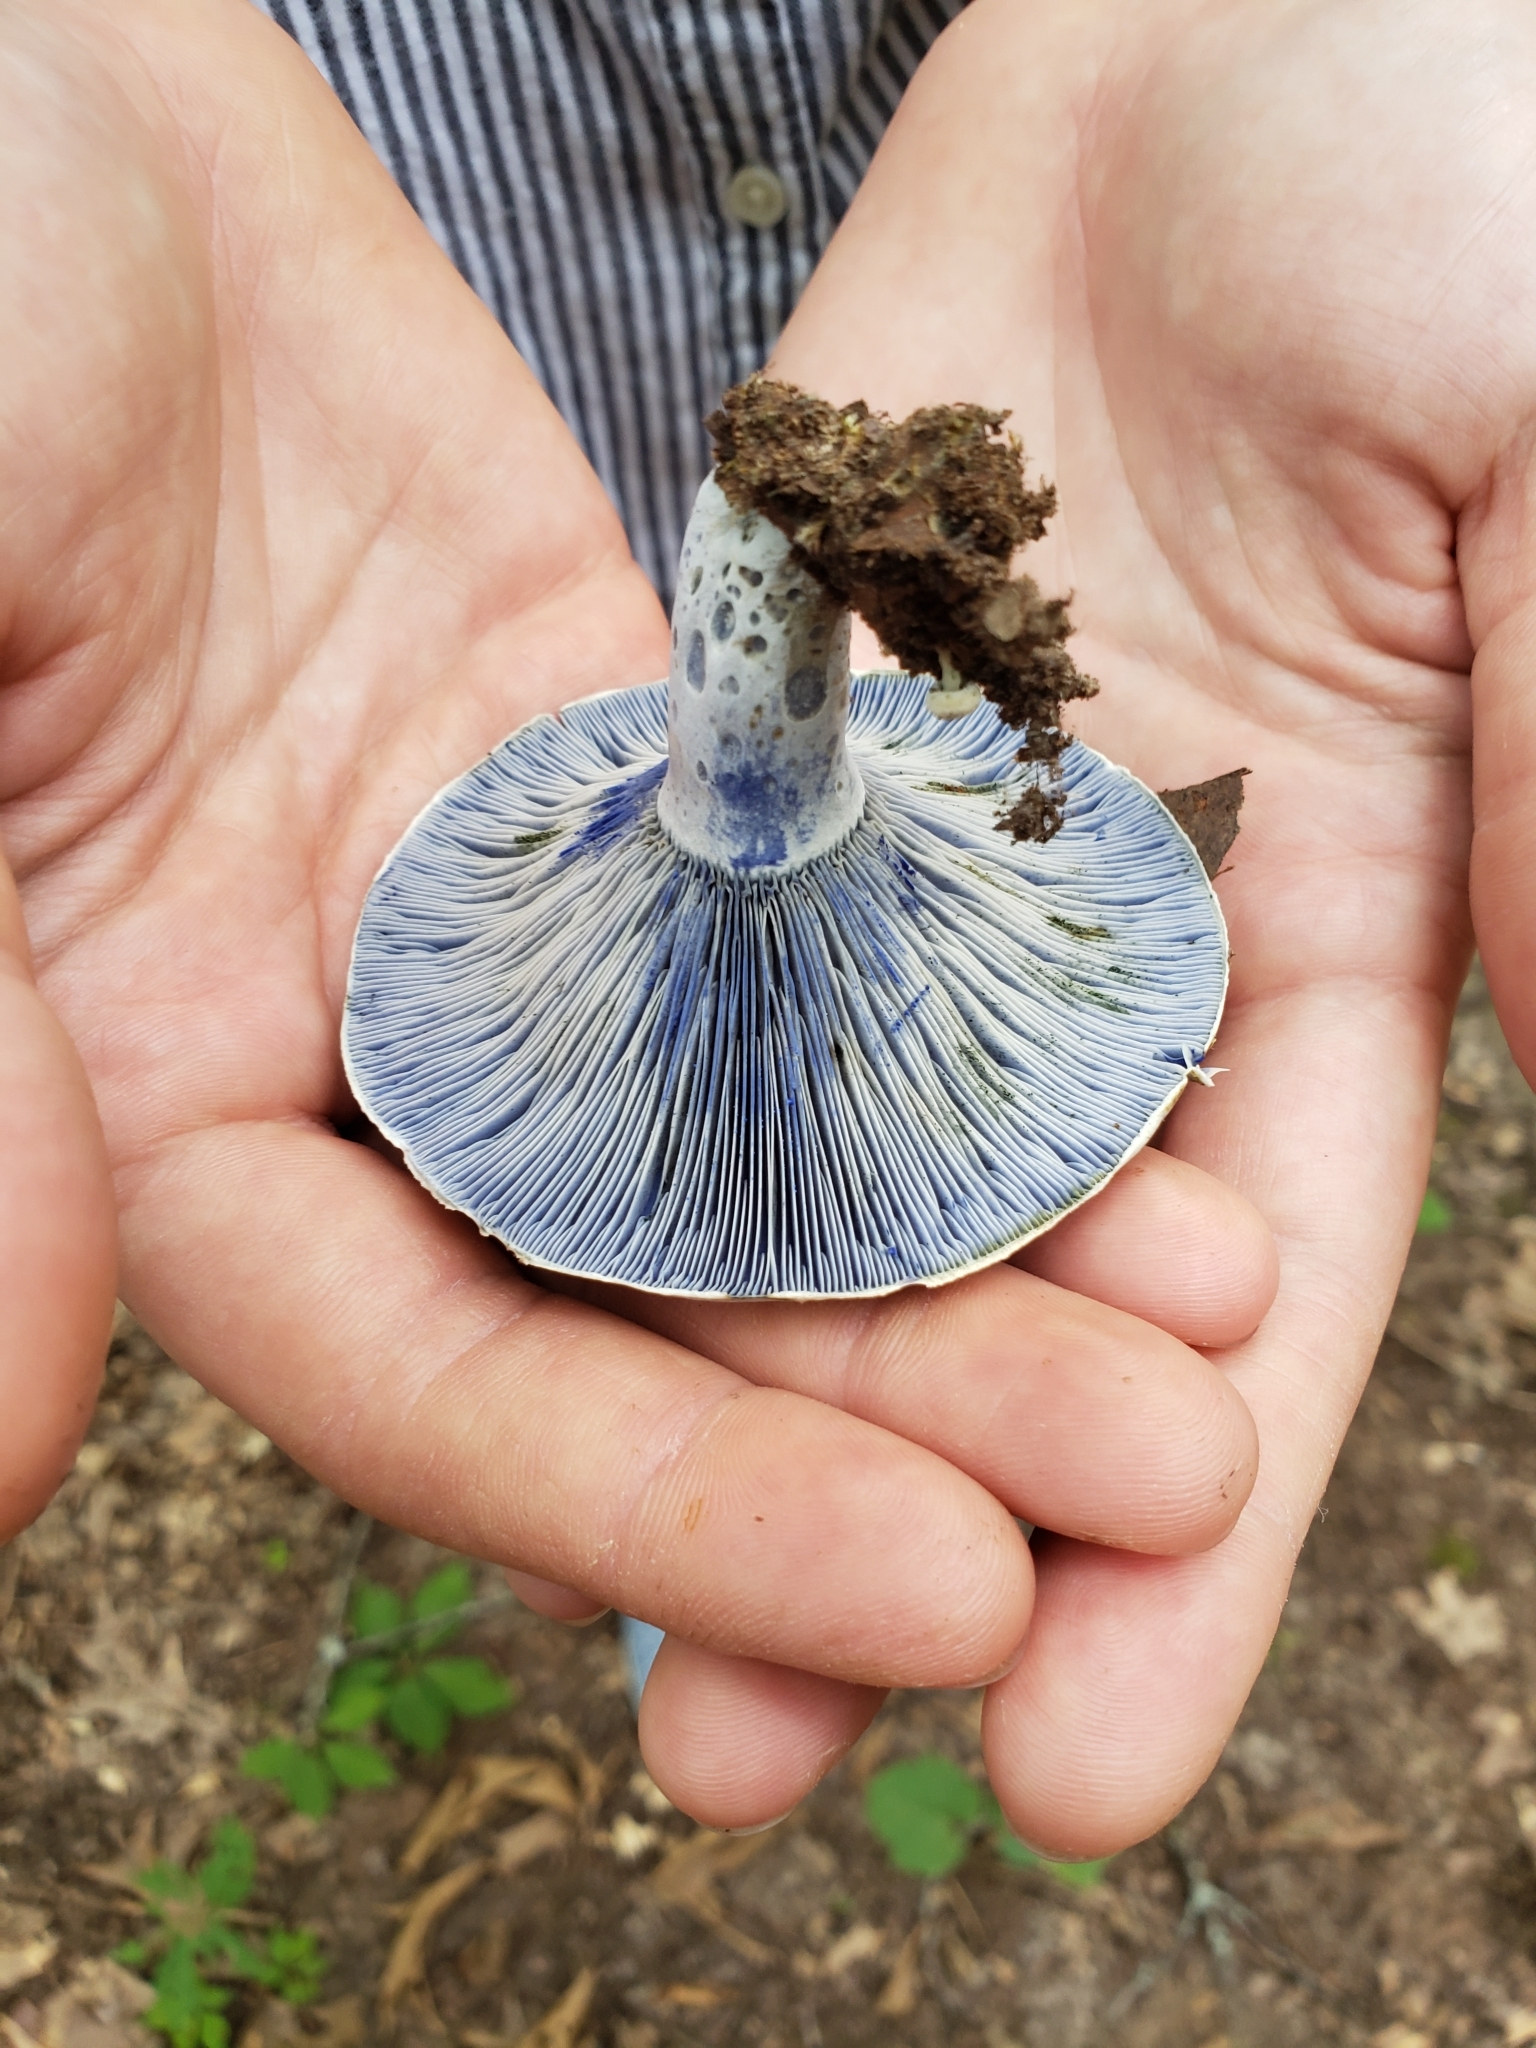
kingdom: Fungi
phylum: Basidiomycota
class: Agaricomycetes
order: Russulales
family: Russulaceae
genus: Lactarius
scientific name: Lactarius indigo
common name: Indigo milk cap
